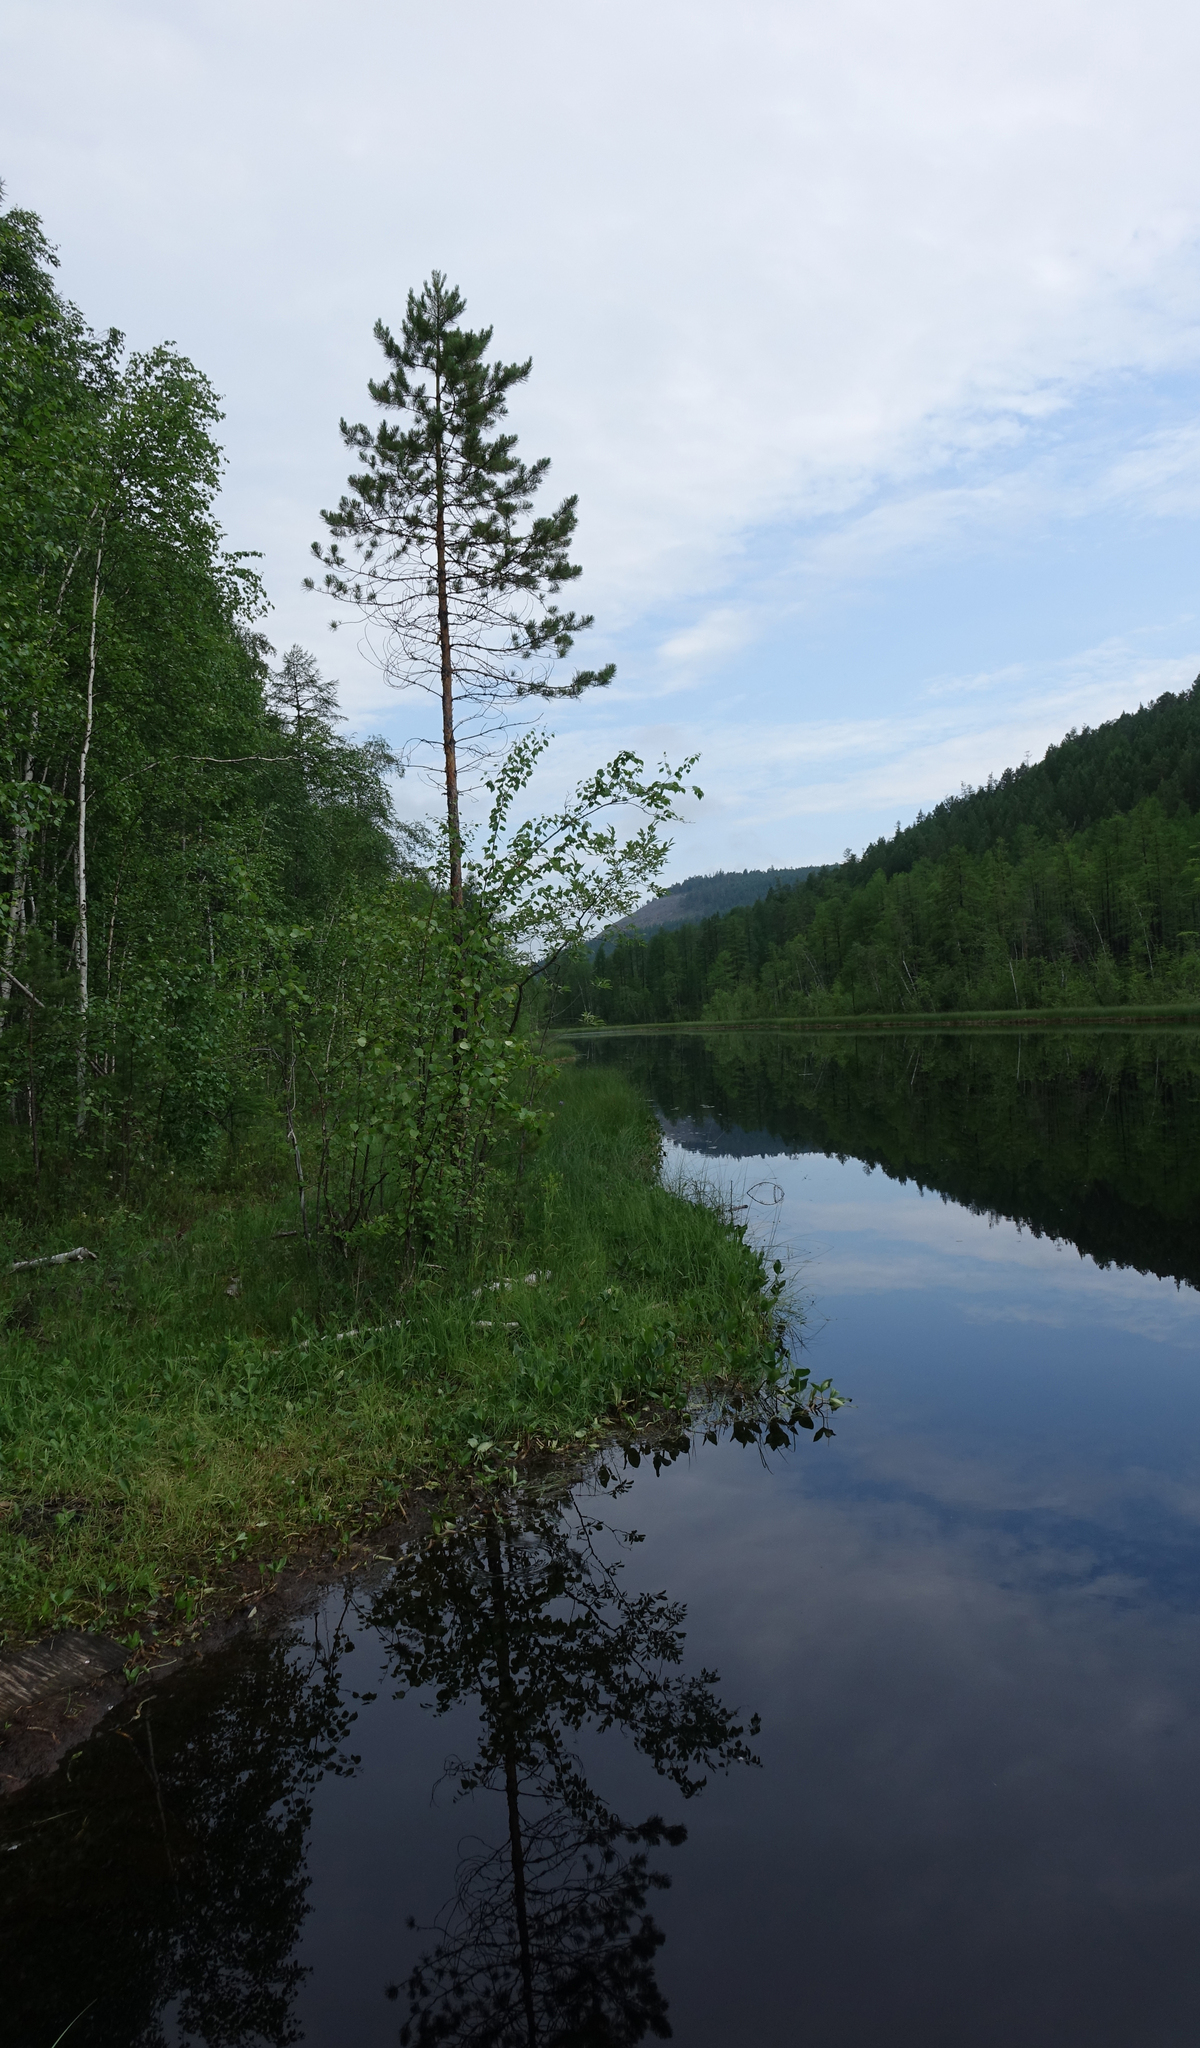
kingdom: Plantae
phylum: Tracheophyta
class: Pinopsida
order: Pinales
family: Pinaceae
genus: Pinus
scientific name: Pinus sylvestris
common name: Scots pine
